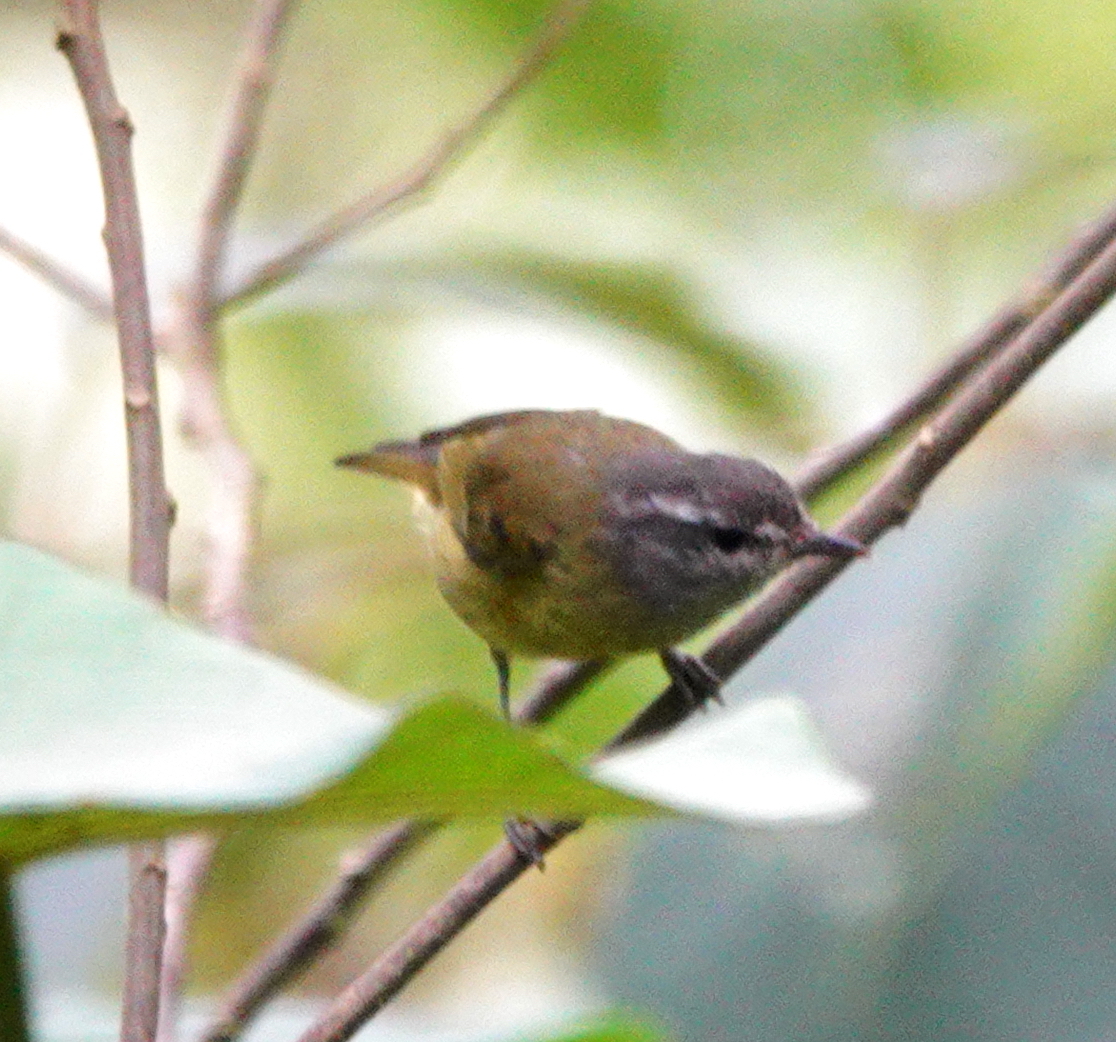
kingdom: Animalia
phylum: Chordata
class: Aves
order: Passeriformes
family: Phylloscopidae
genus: Phylloscopus
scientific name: Phylloscopus maforensis
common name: Island leaf warbler
